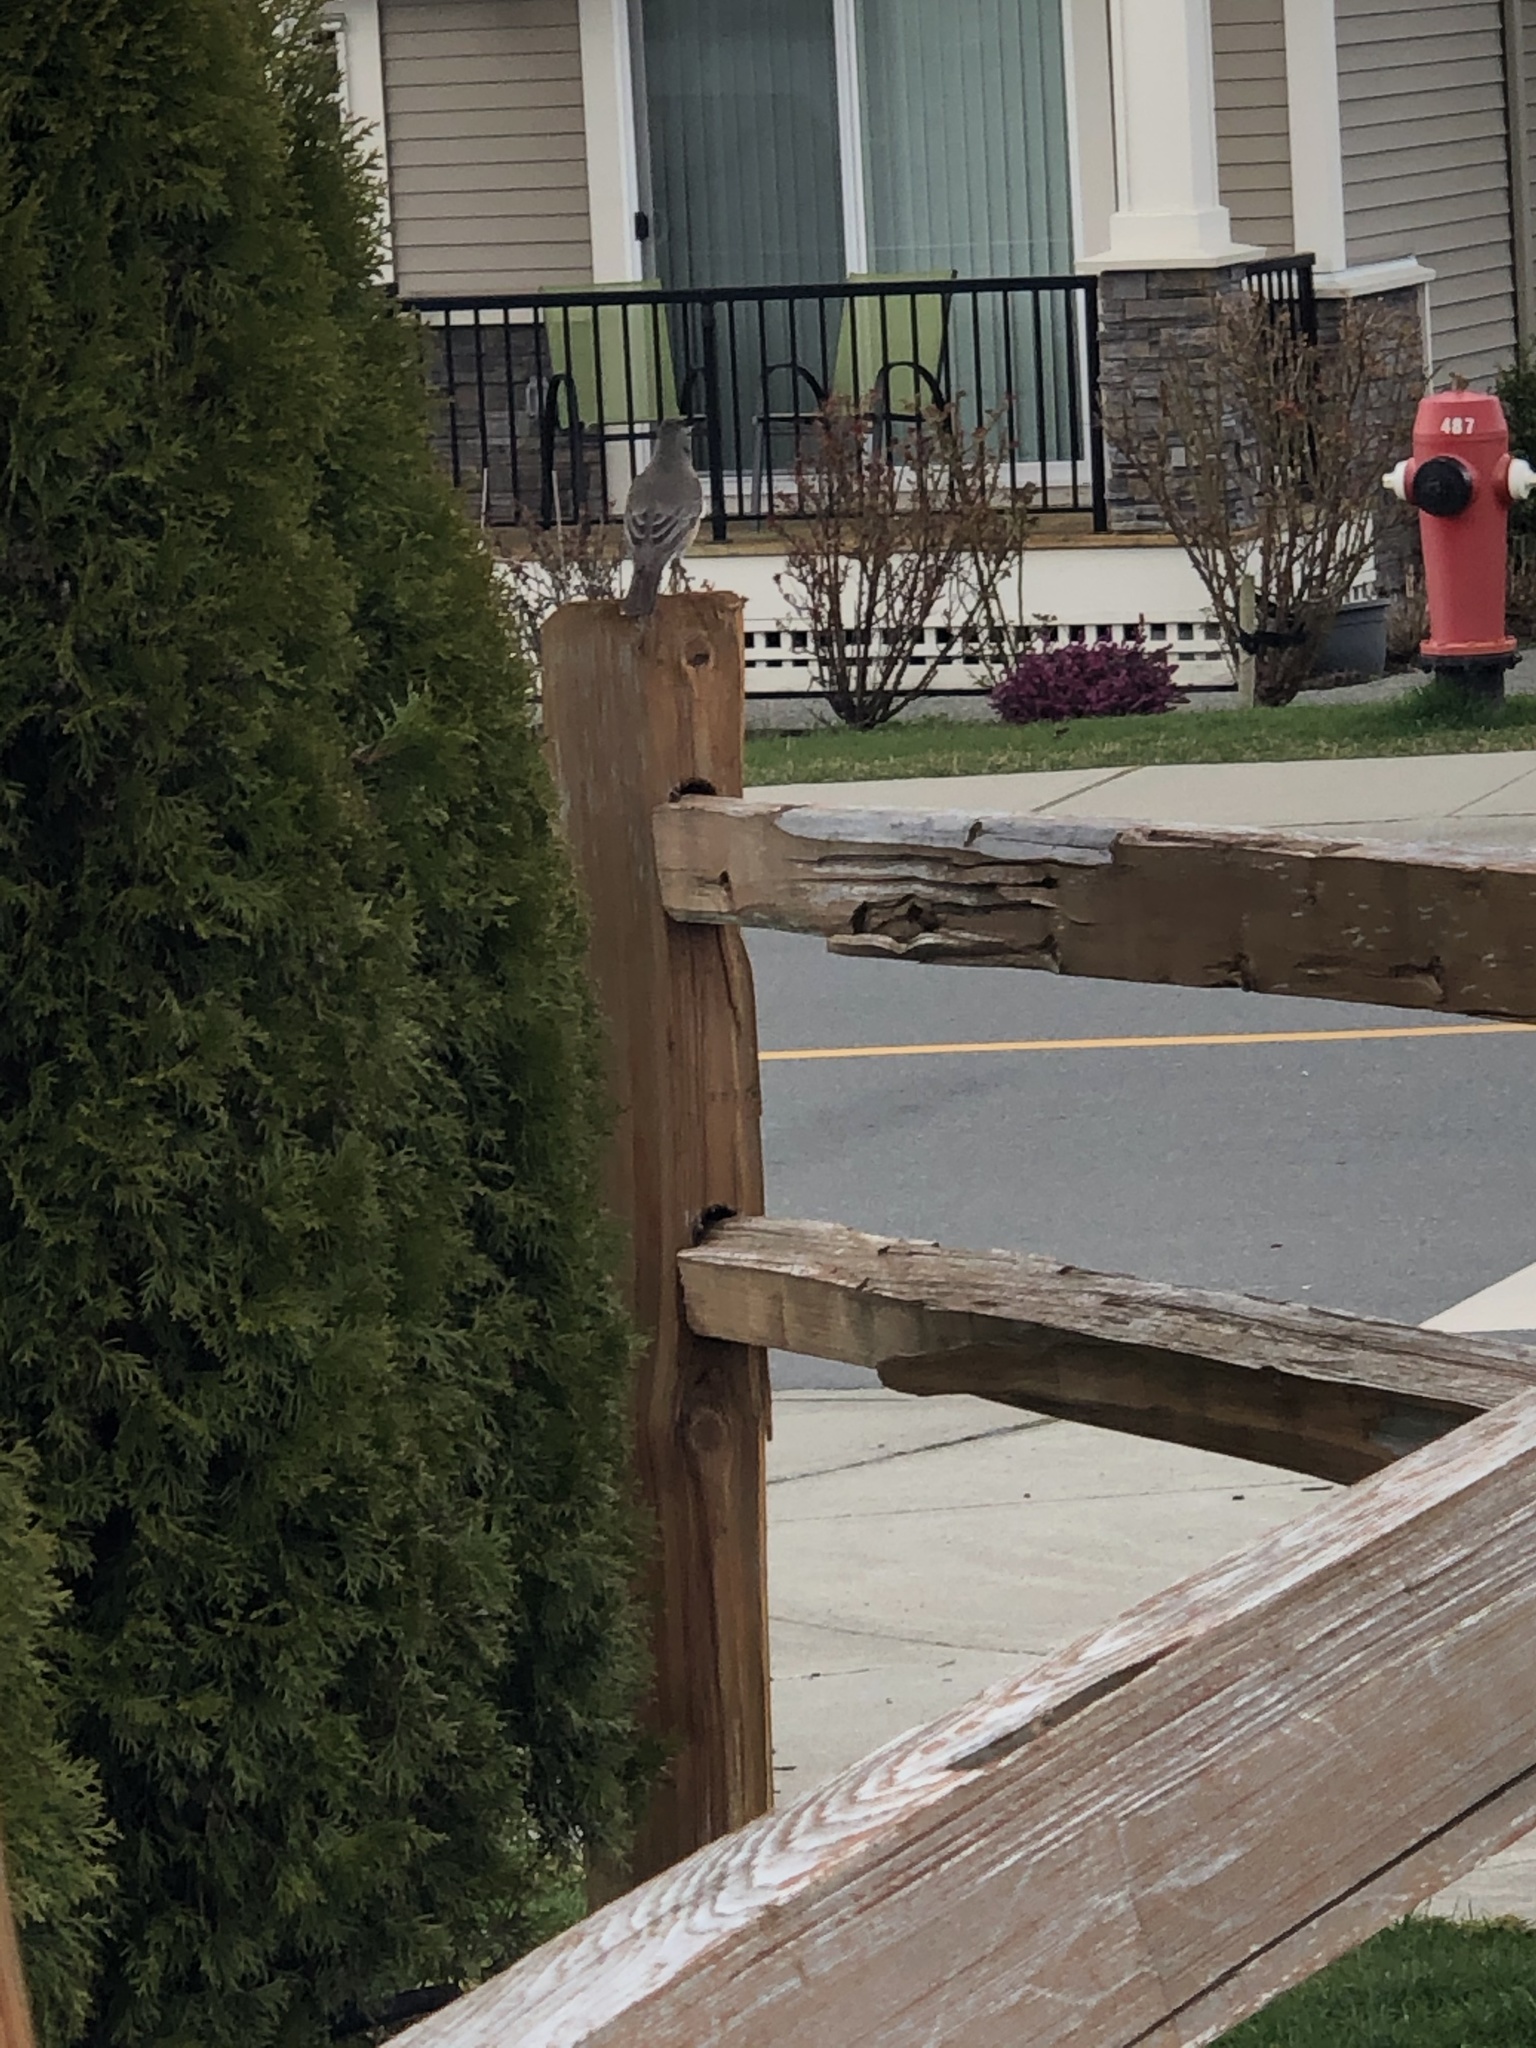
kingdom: Animalia
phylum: Chordata
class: Aves
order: Passeriformes
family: Turdidae
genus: Turdus
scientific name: Turdus migratorius
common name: American robin
